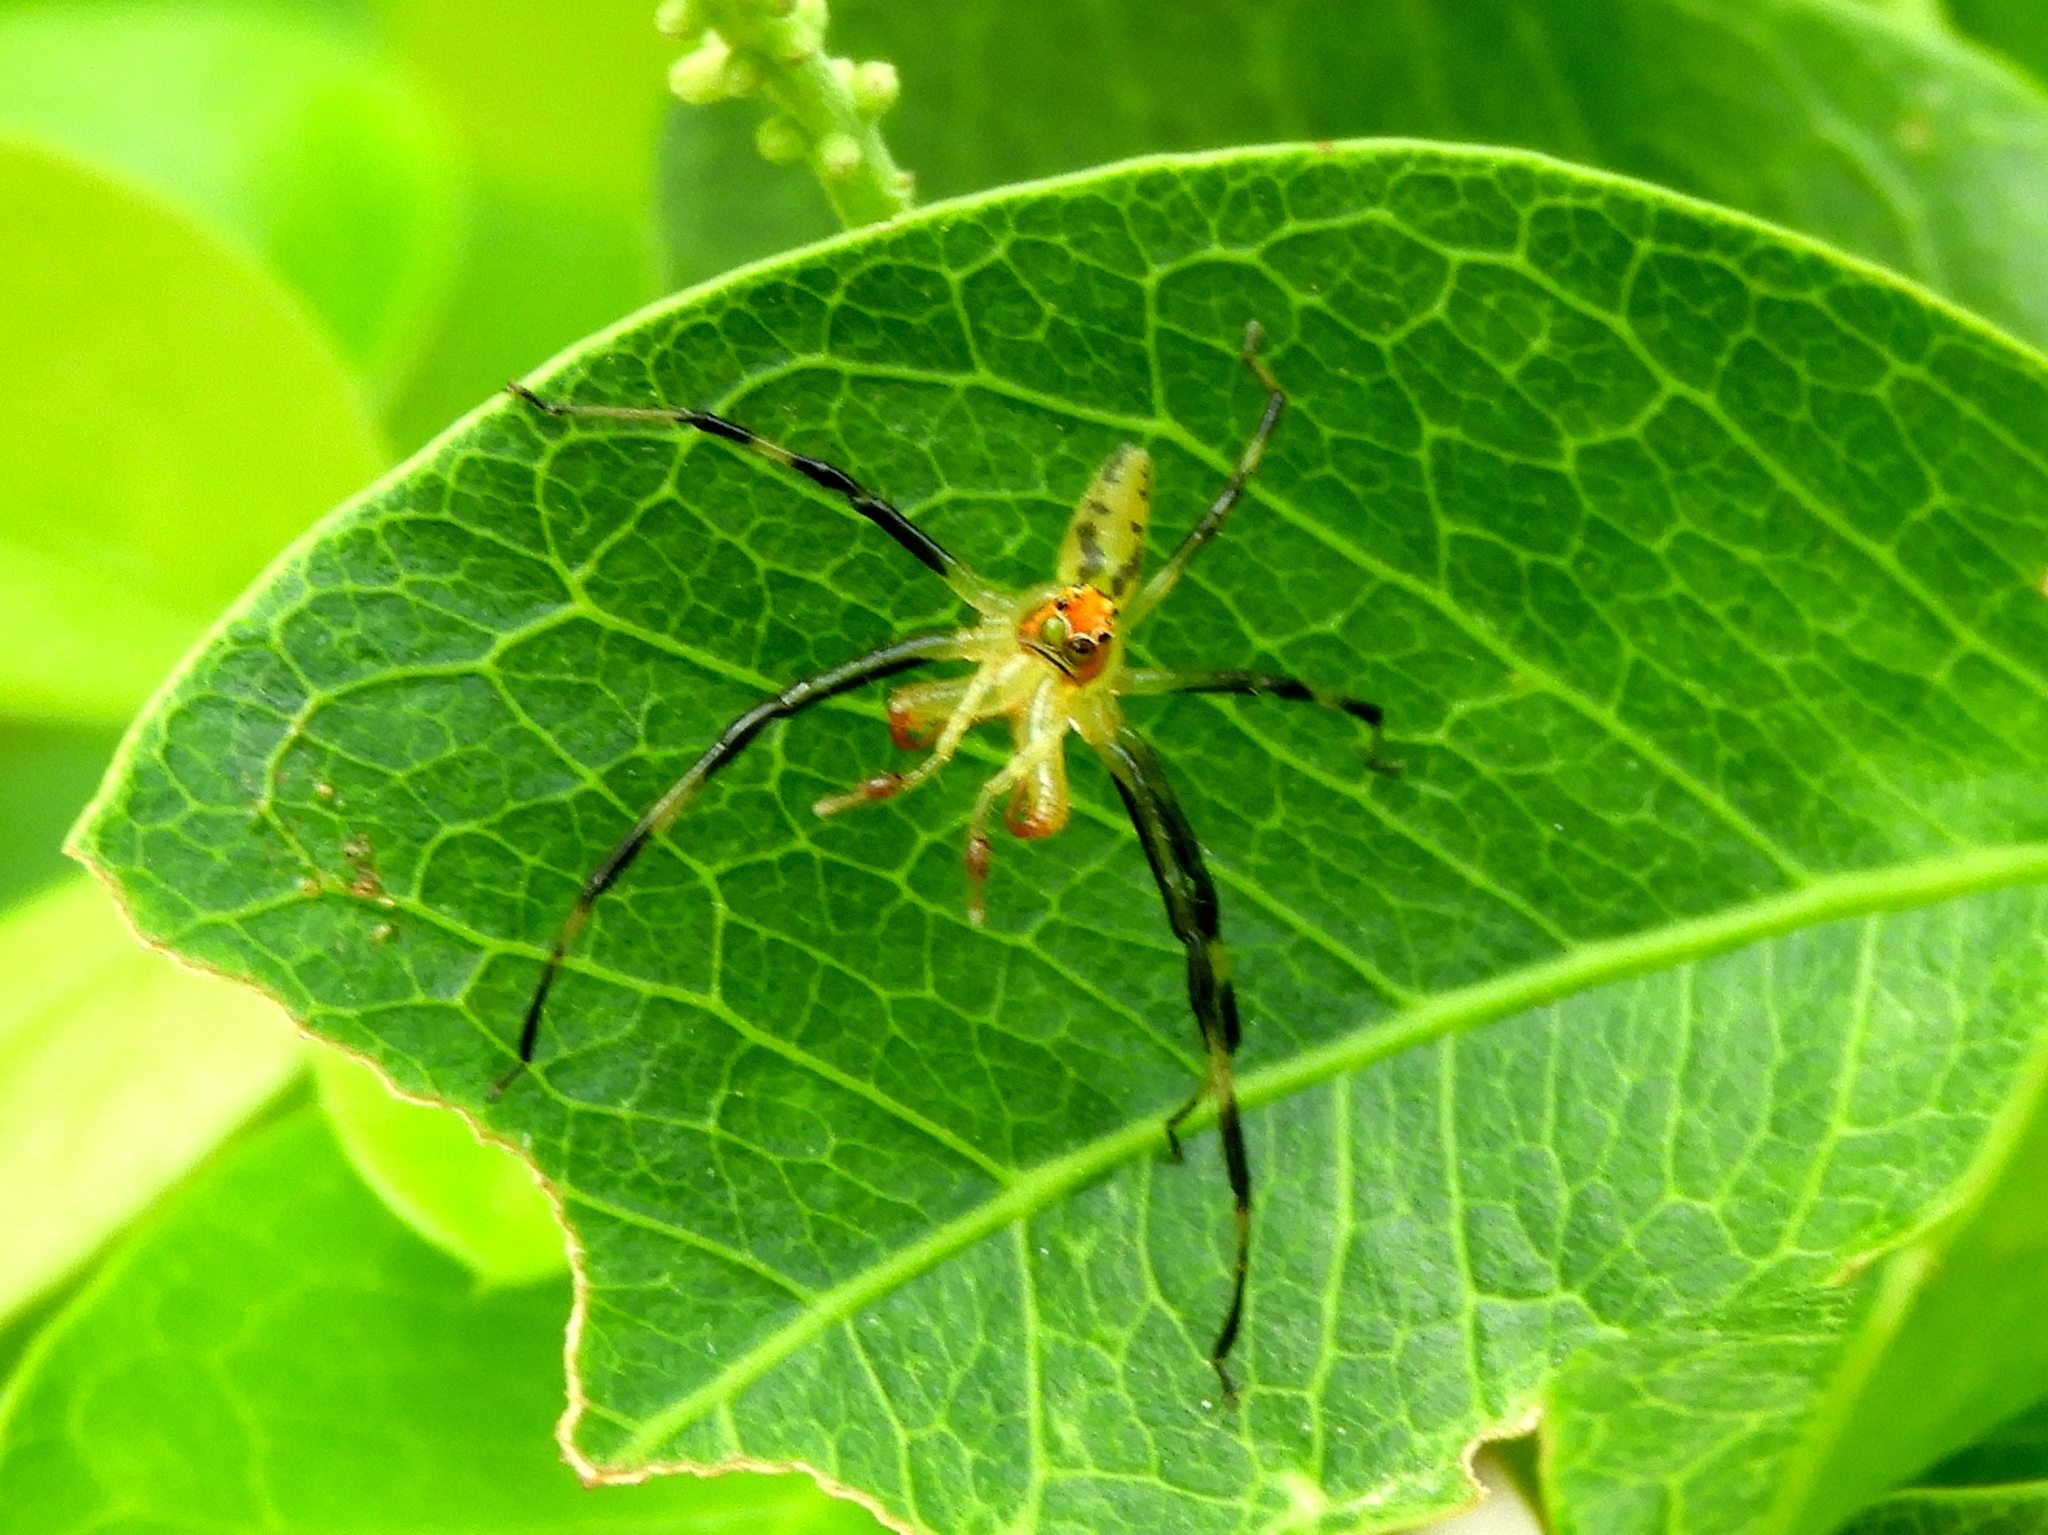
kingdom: Animalia
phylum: Arthropoda
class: Arachnida
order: Araneae
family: Salticidae
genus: Lyssomanes
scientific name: Lyssomanes
